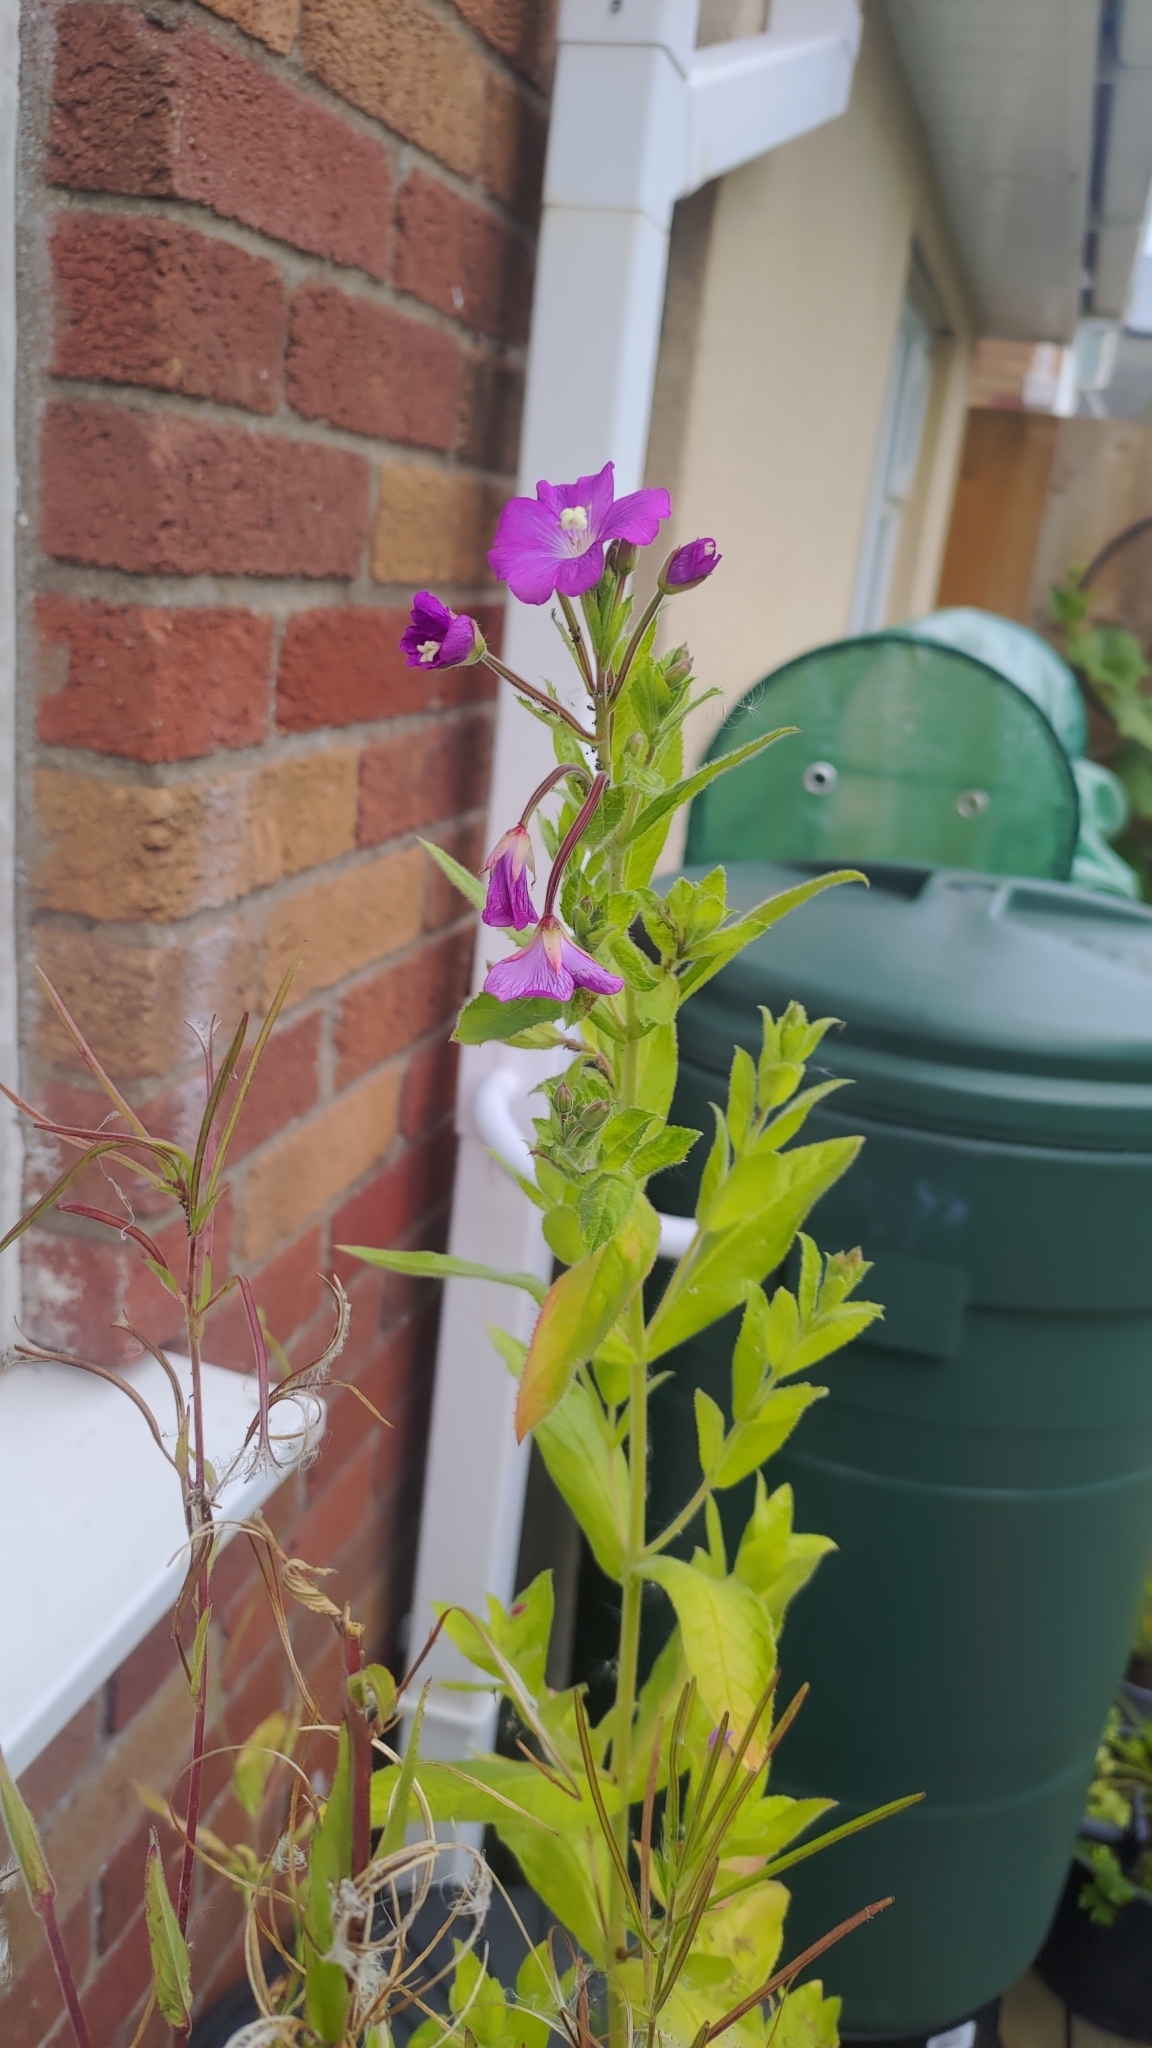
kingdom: Plantae
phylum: Tracheophyta
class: Magnoliopsida
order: Myrtales
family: Onagraceae
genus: Epilobium
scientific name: Epilobium hirsutum
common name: Great willowherb
